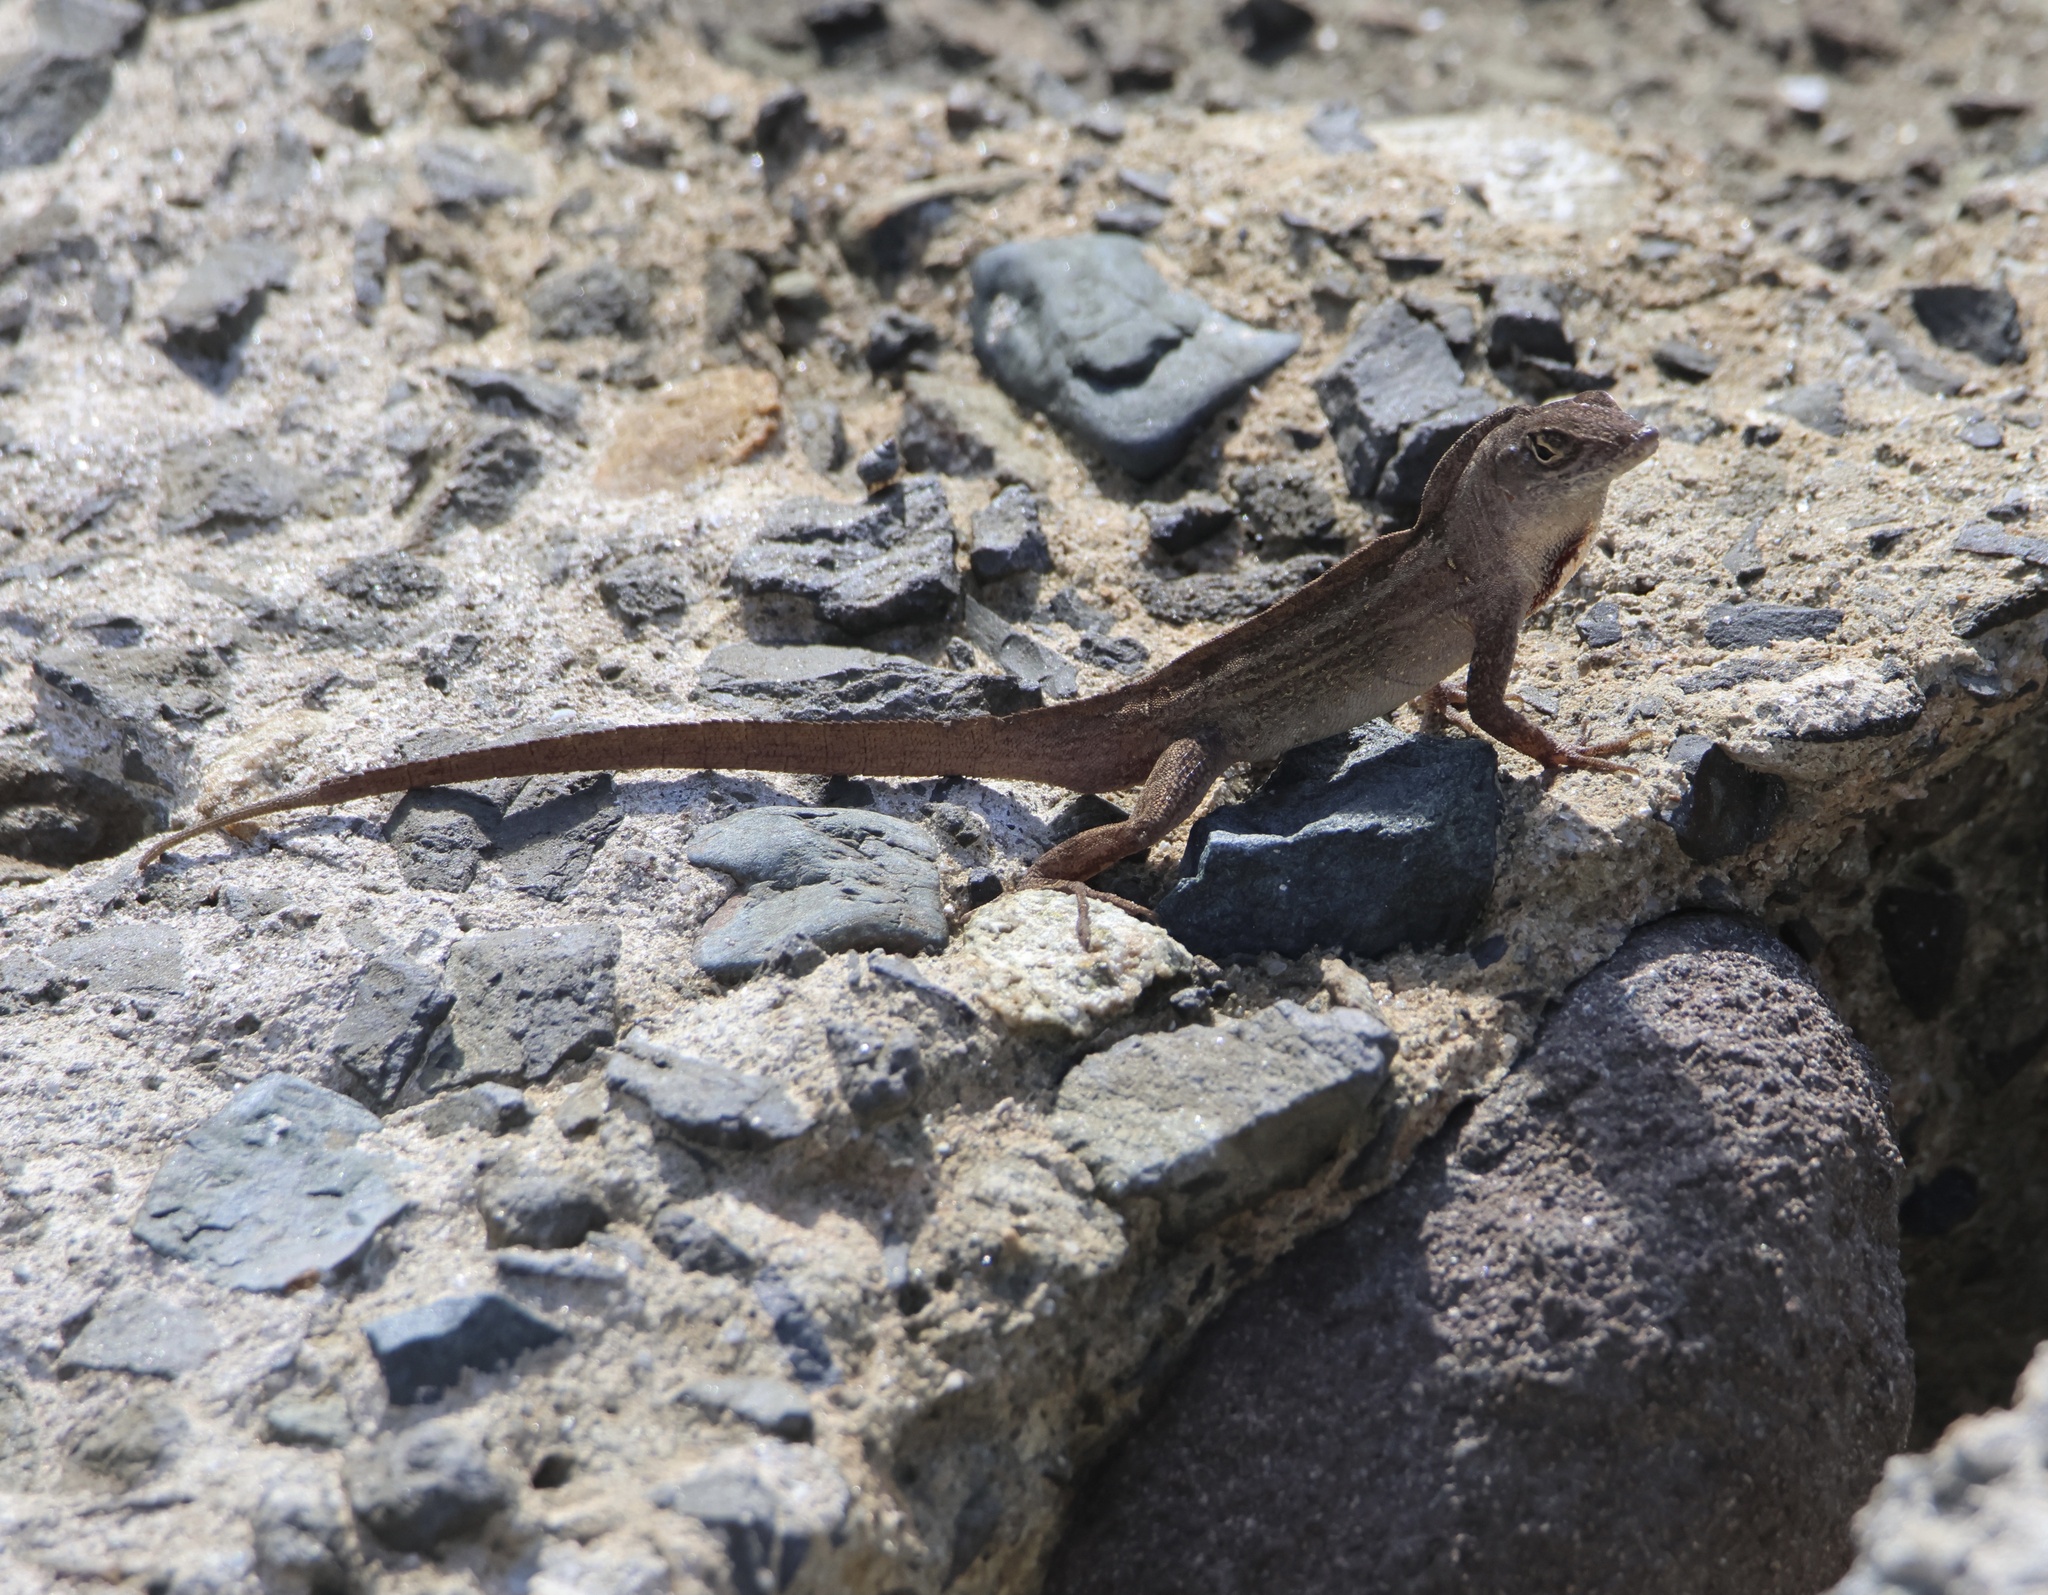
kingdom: Animalia
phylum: Chordata
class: Squamata
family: Dactyloidae
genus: Anolis
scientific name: Anolis sagrei
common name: Brown anole
